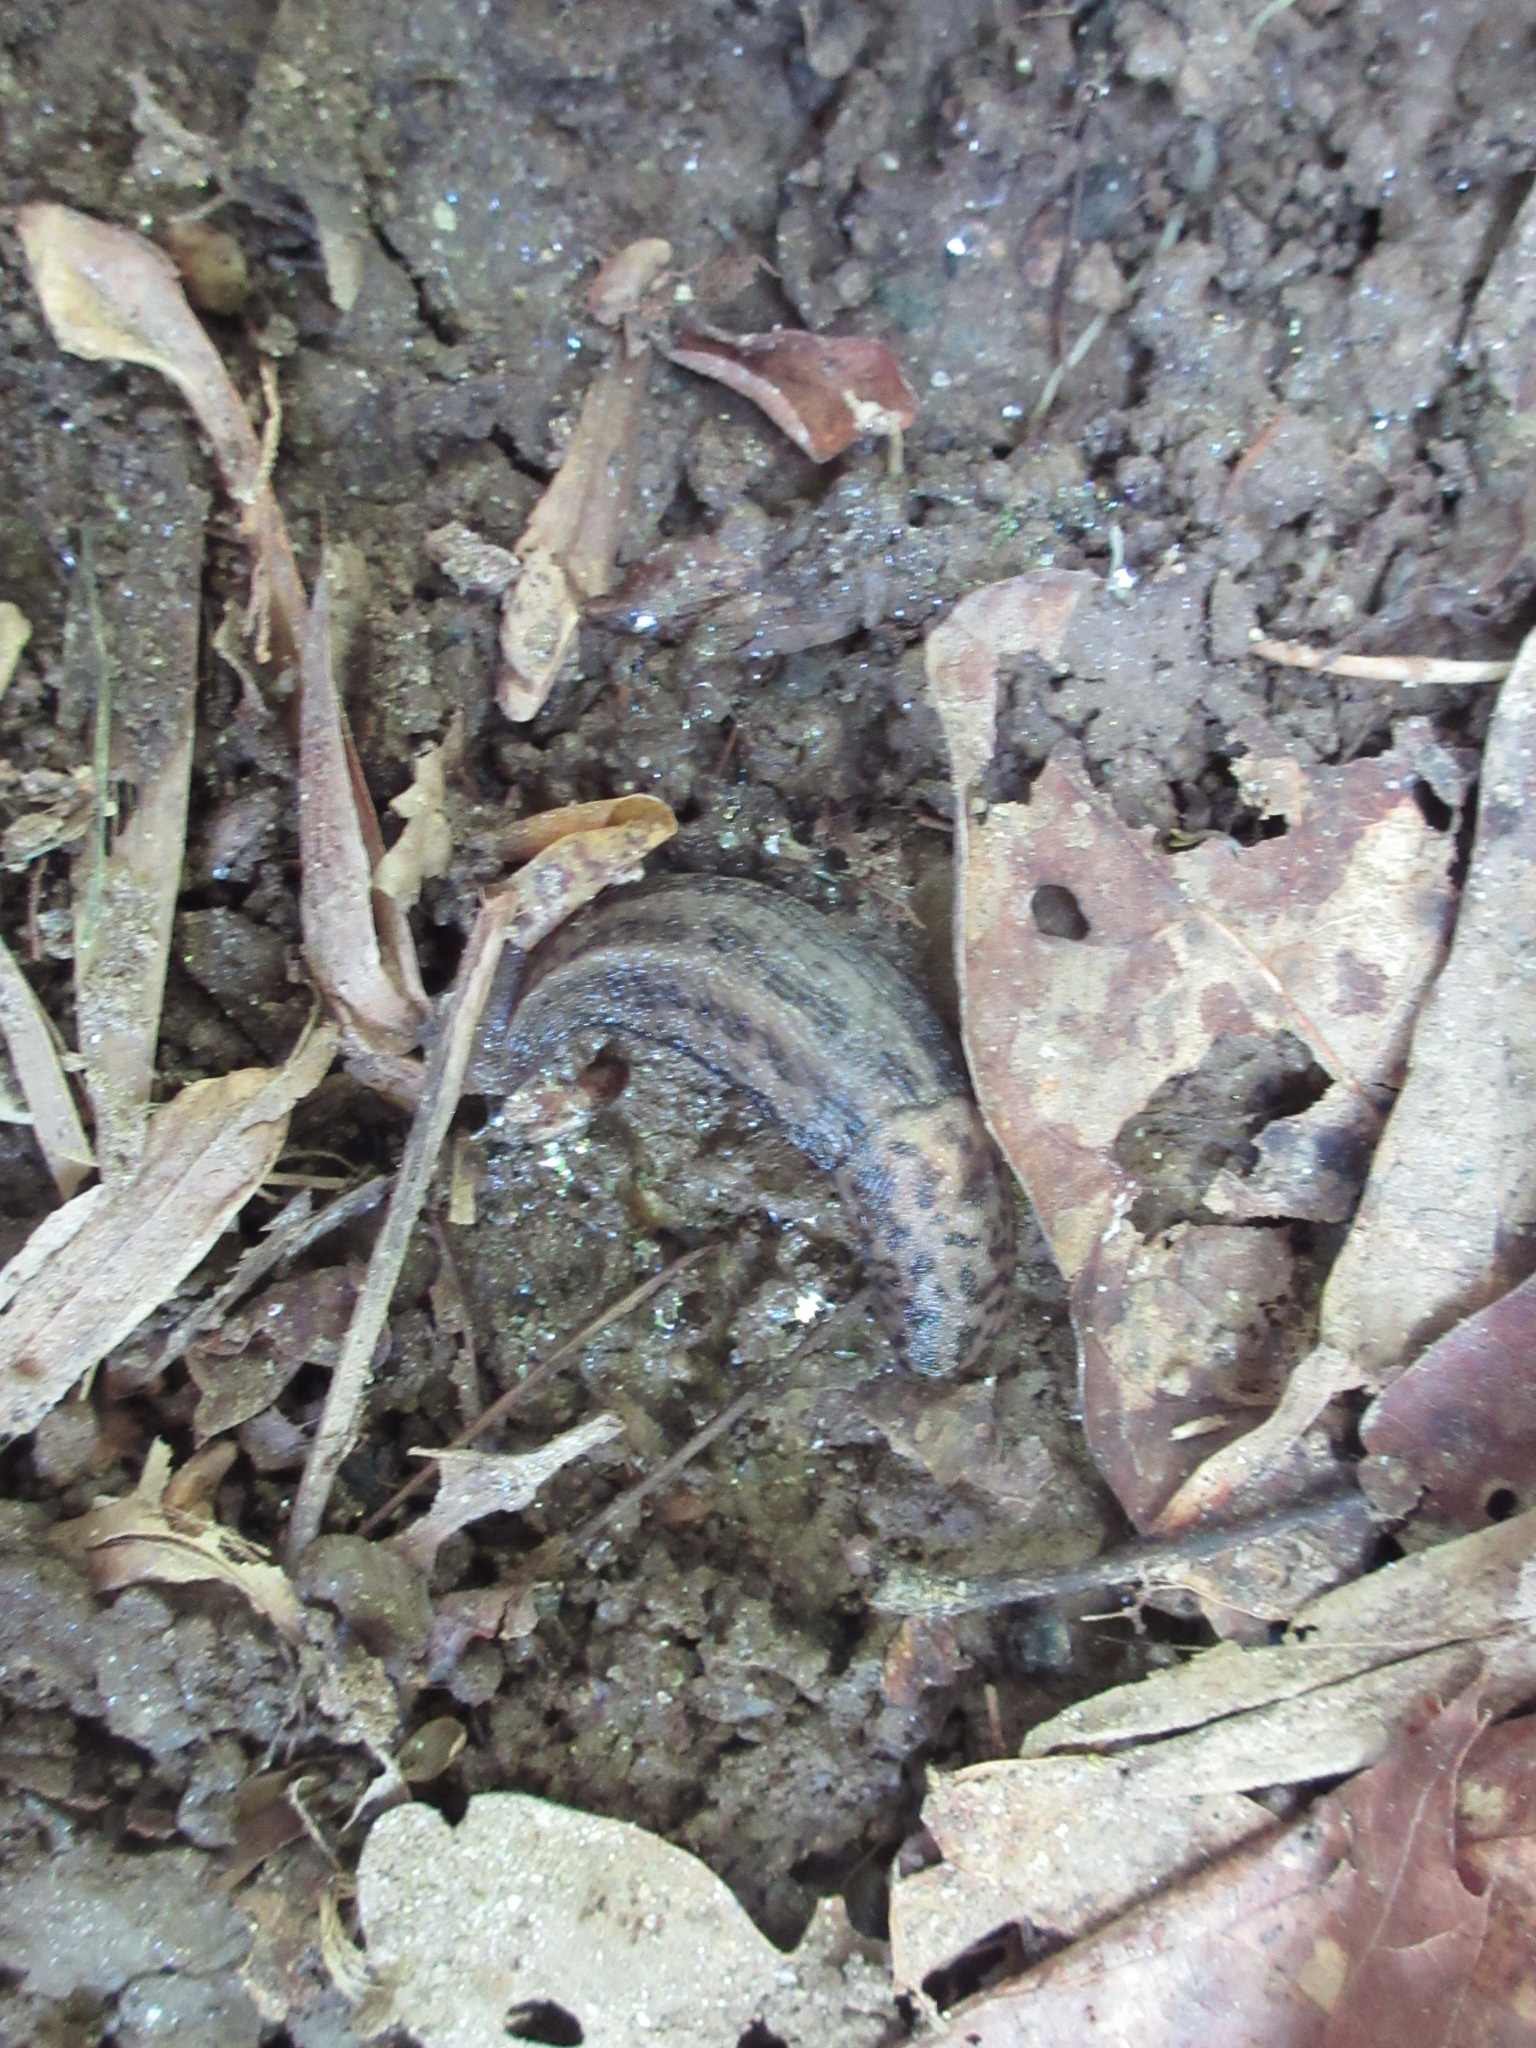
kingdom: Animalia
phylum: Mollusca
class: Gastropoda
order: Stylommatophora
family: Limacidae
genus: Limax
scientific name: Limax maximus
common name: Great grey slug
